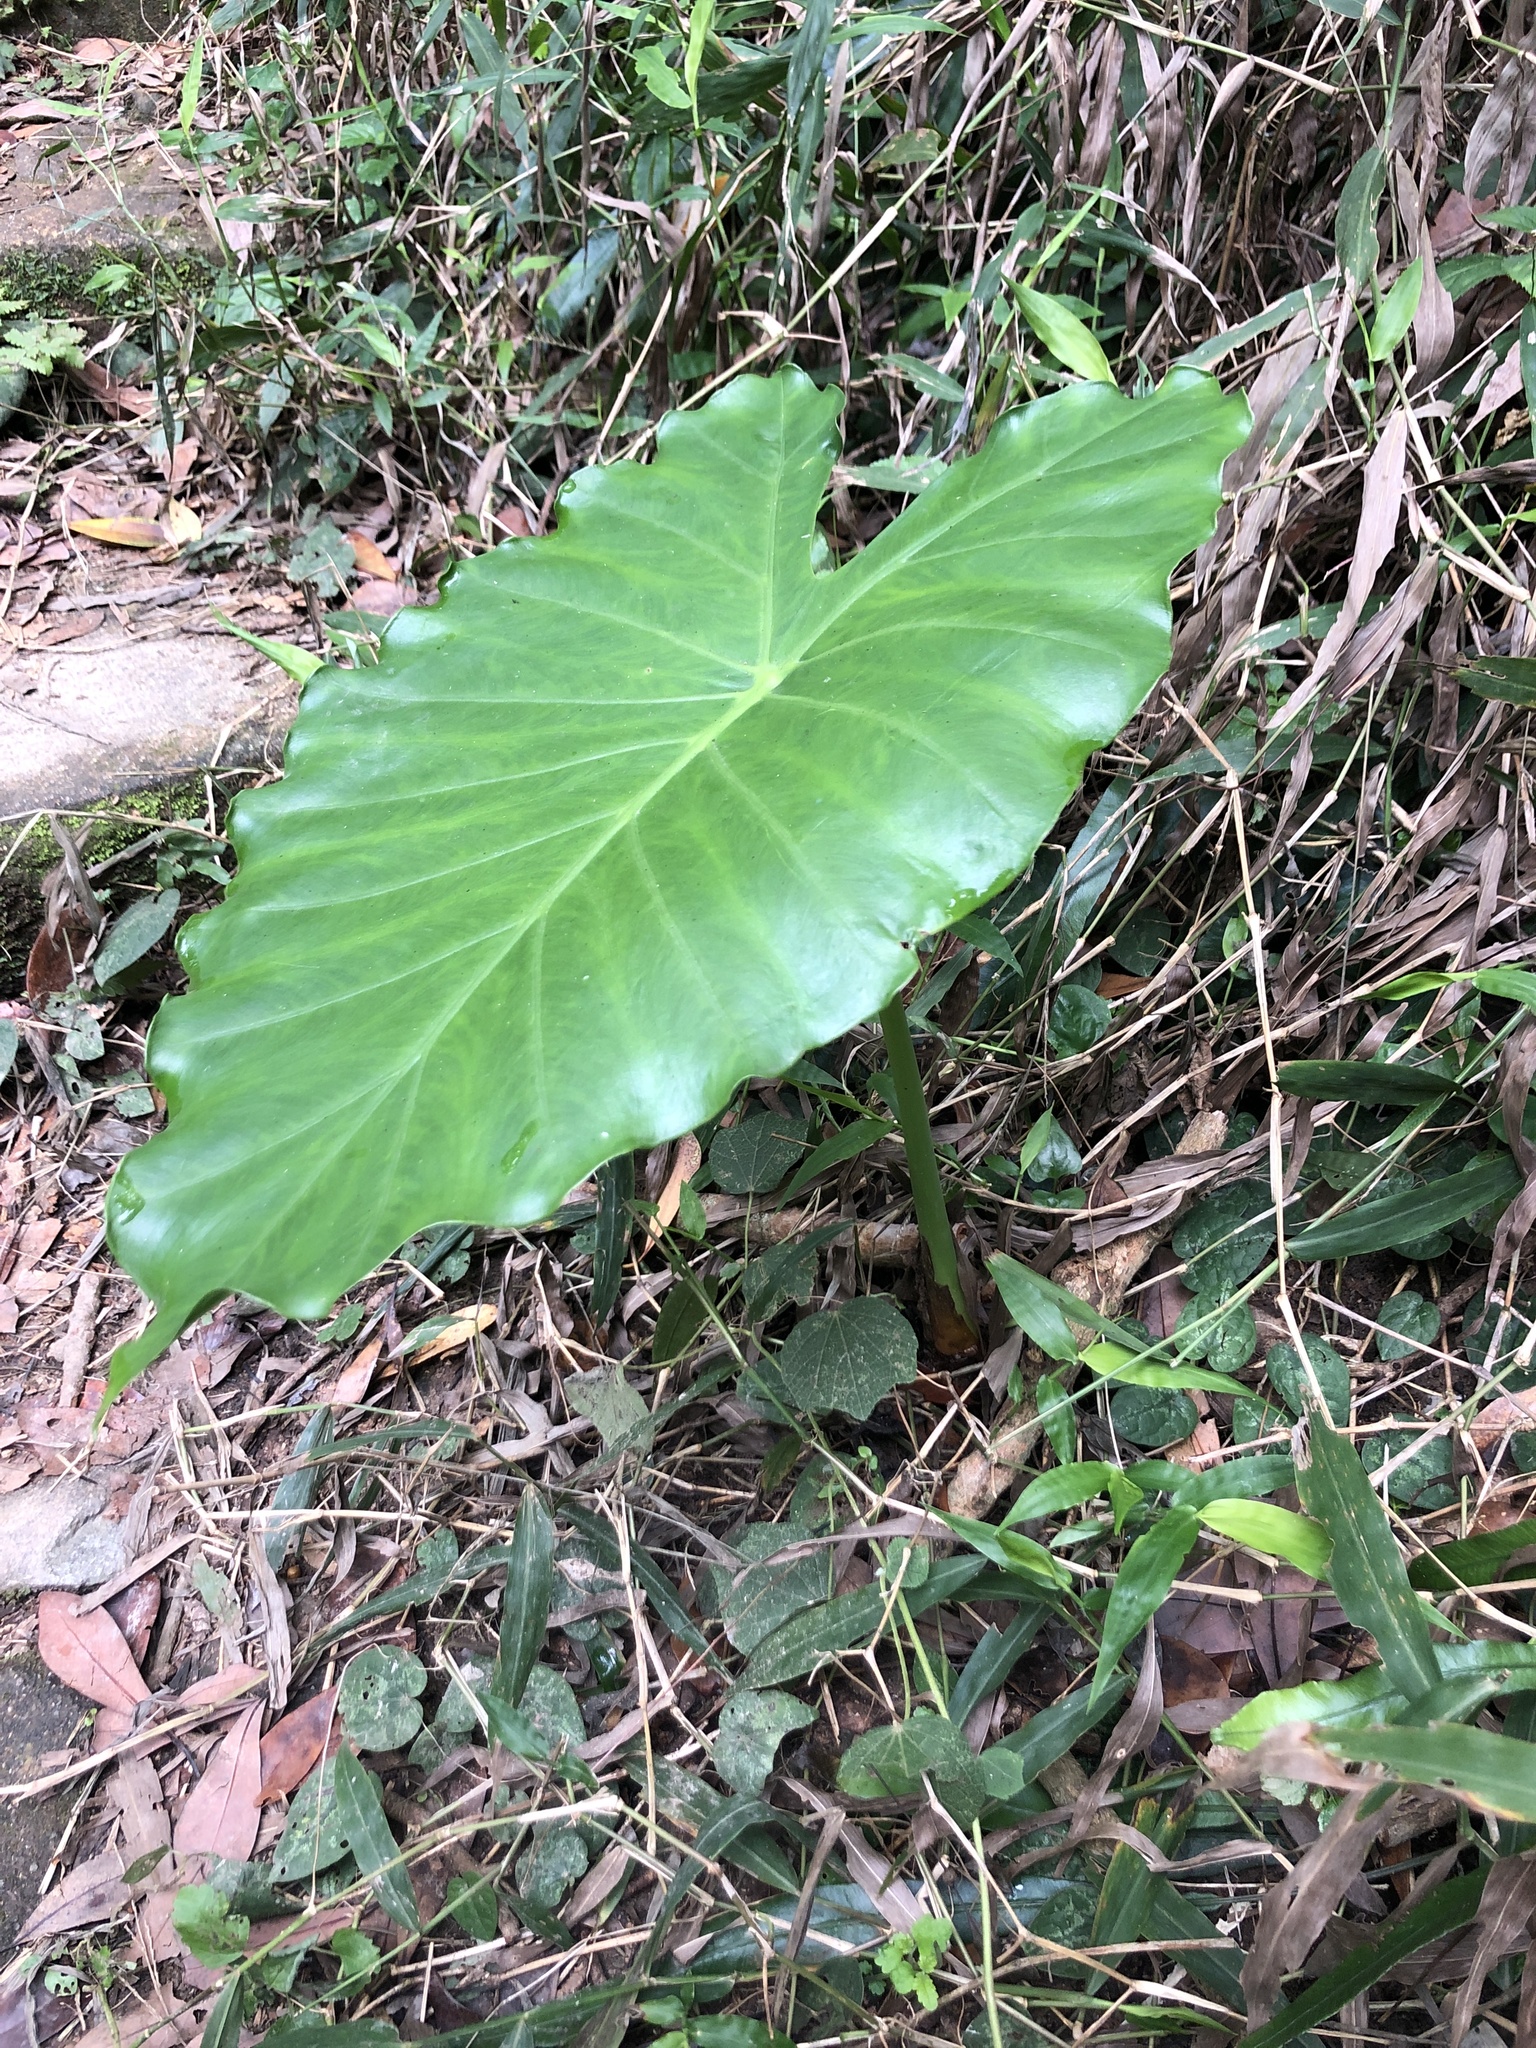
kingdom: Plantae
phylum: Tracheophyta
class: Liliopsida
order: Alismatales
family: Araceae
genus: Alocasia
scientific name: Alocasia odora
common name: Asian taro
